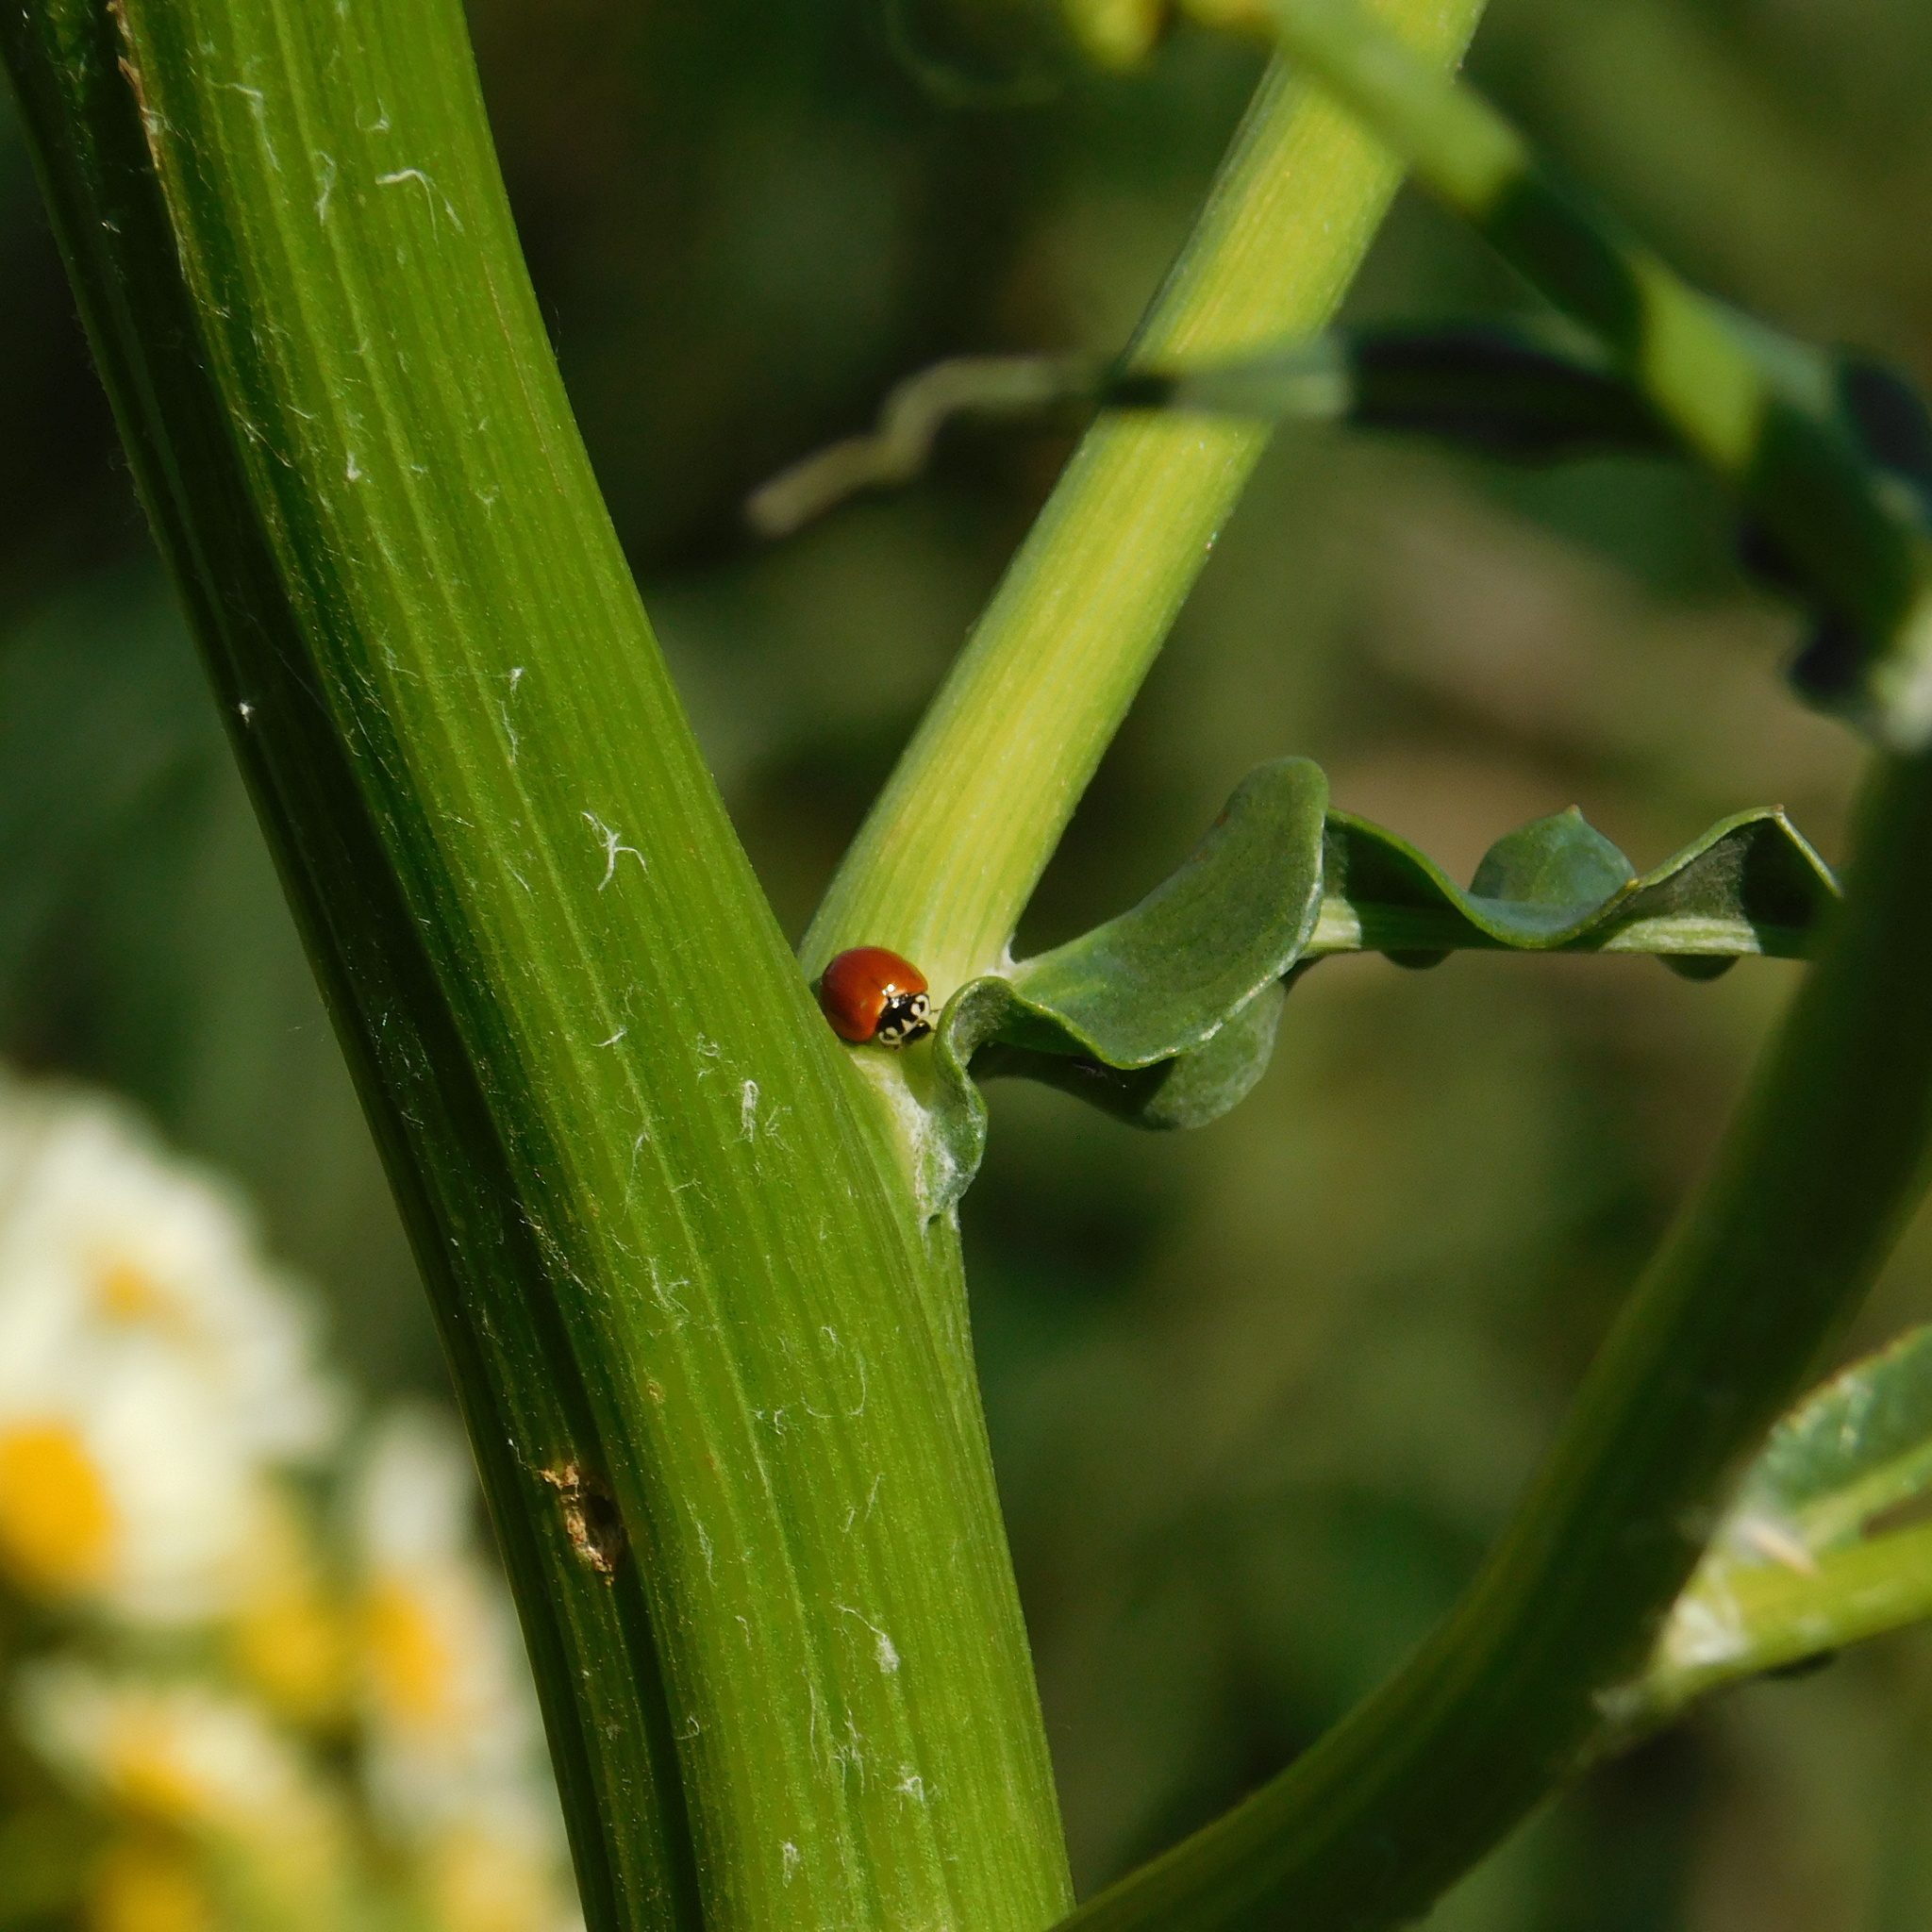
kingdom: Animalia
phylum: Arthropoda
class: Insecta
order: Coleoptera
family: Coccinellidae
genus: Cycloneda
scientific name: Cycloneda sanguinea
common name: Ladybird beetle
